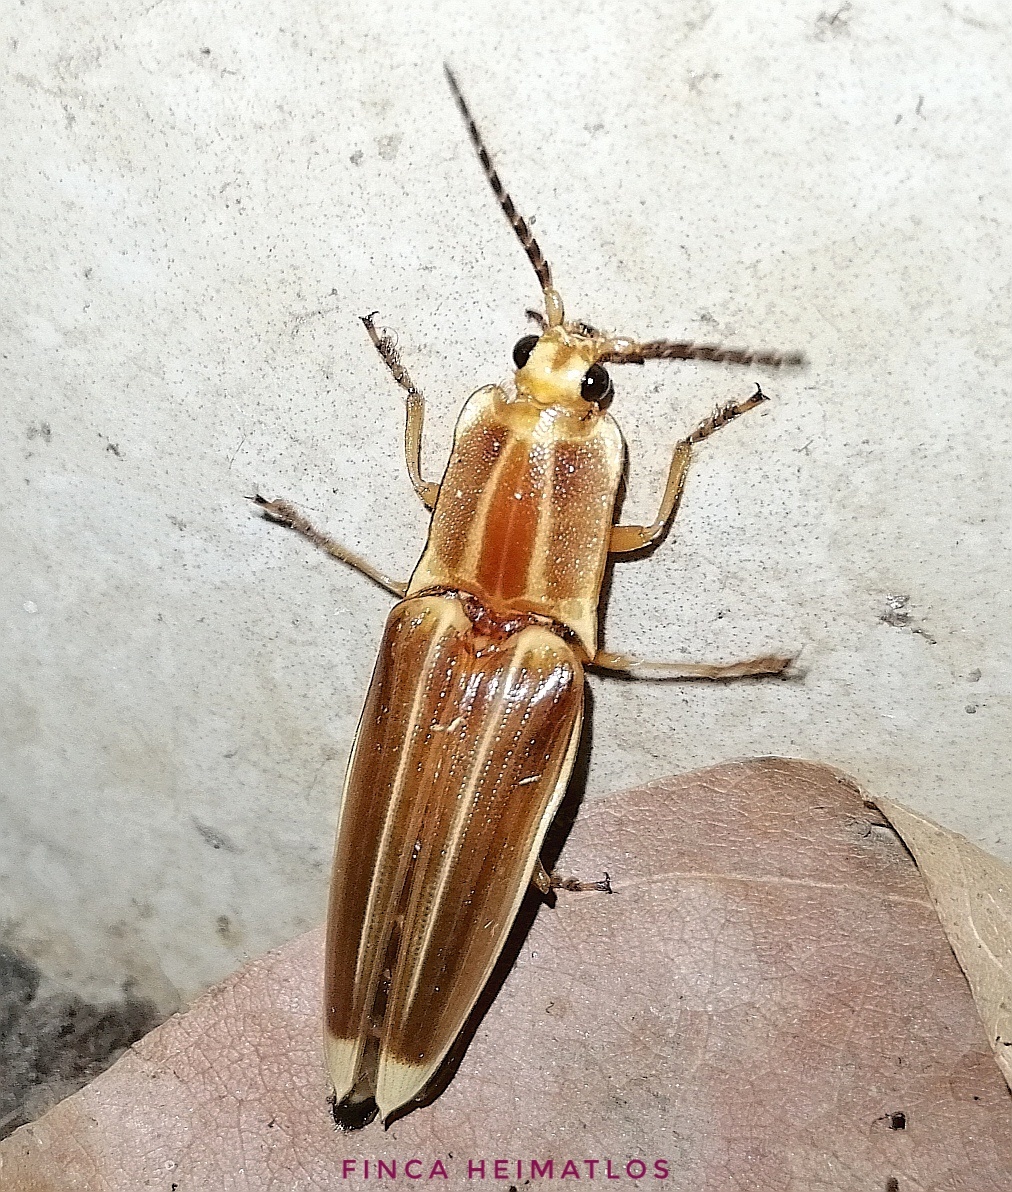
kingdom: Animalia
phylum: Arthropoda
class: Insecta
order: Coleoptera
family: Elateridae
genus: Semiotus
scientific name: Semiotus ligneus
